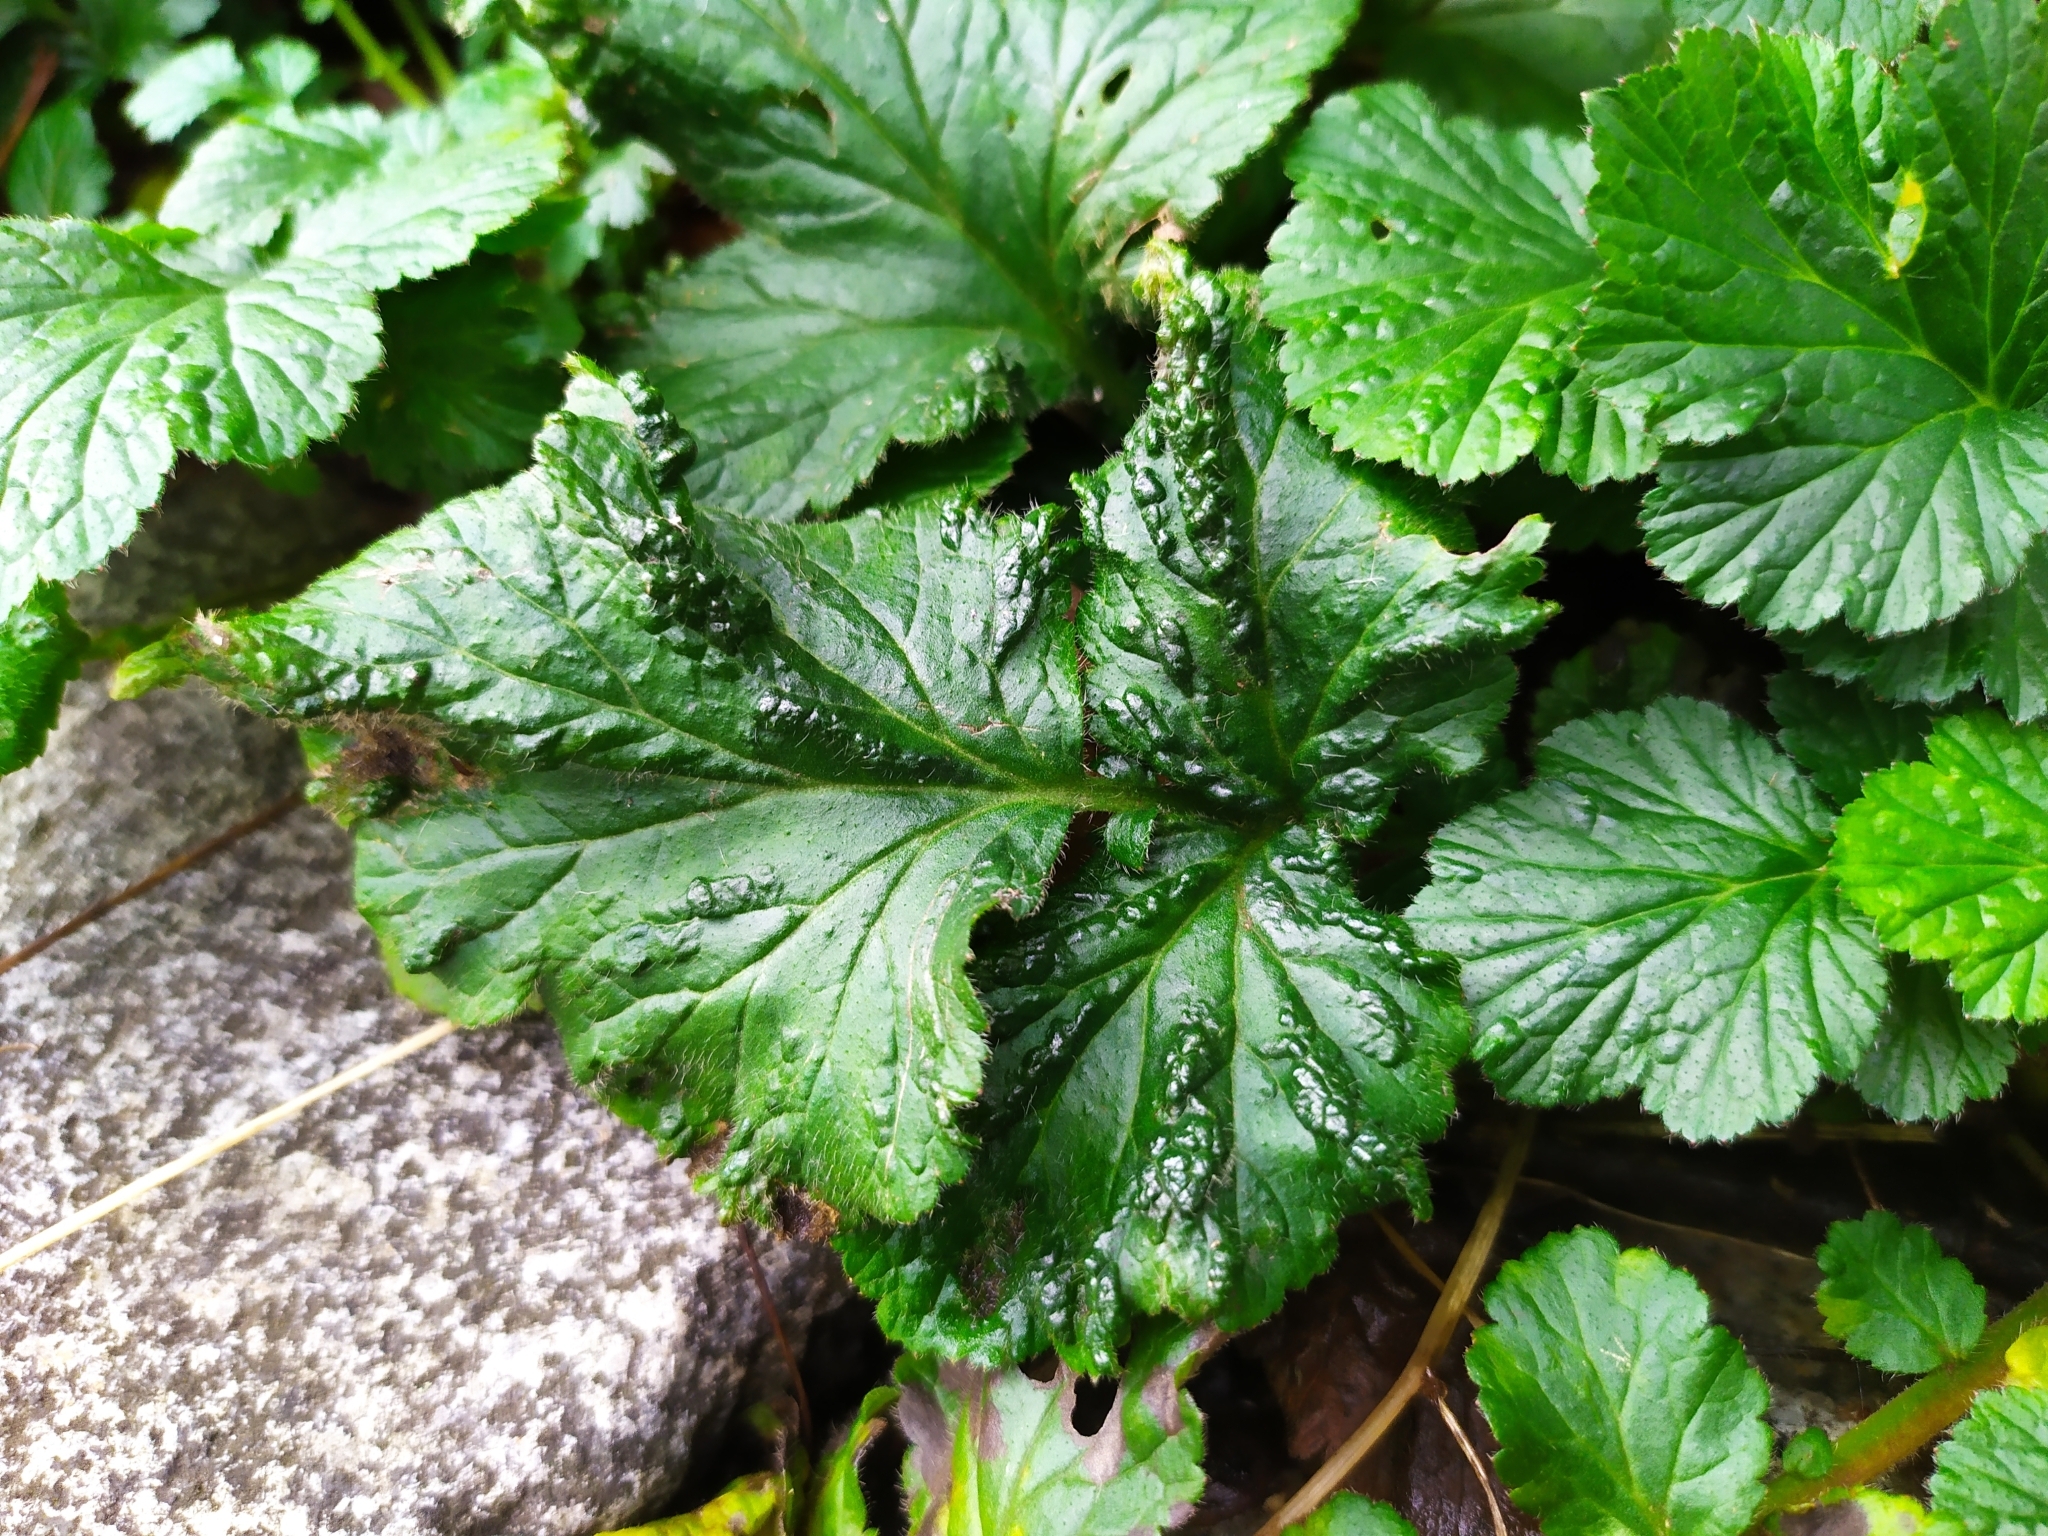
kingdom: Animalia
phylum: Arthropoda
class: Arachnida
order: Trombidiformes
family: Eriophyidae
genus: Cecidophyes
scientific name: Cecidophyes nudus
